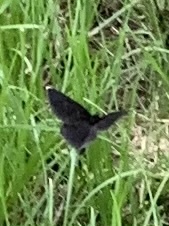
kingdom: Animalia
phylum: Arthropoda
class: Insecta
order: Lepidoptera
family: Geometridae
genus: Odezia
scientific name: Odezia atrata
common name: Chimney sweeper
